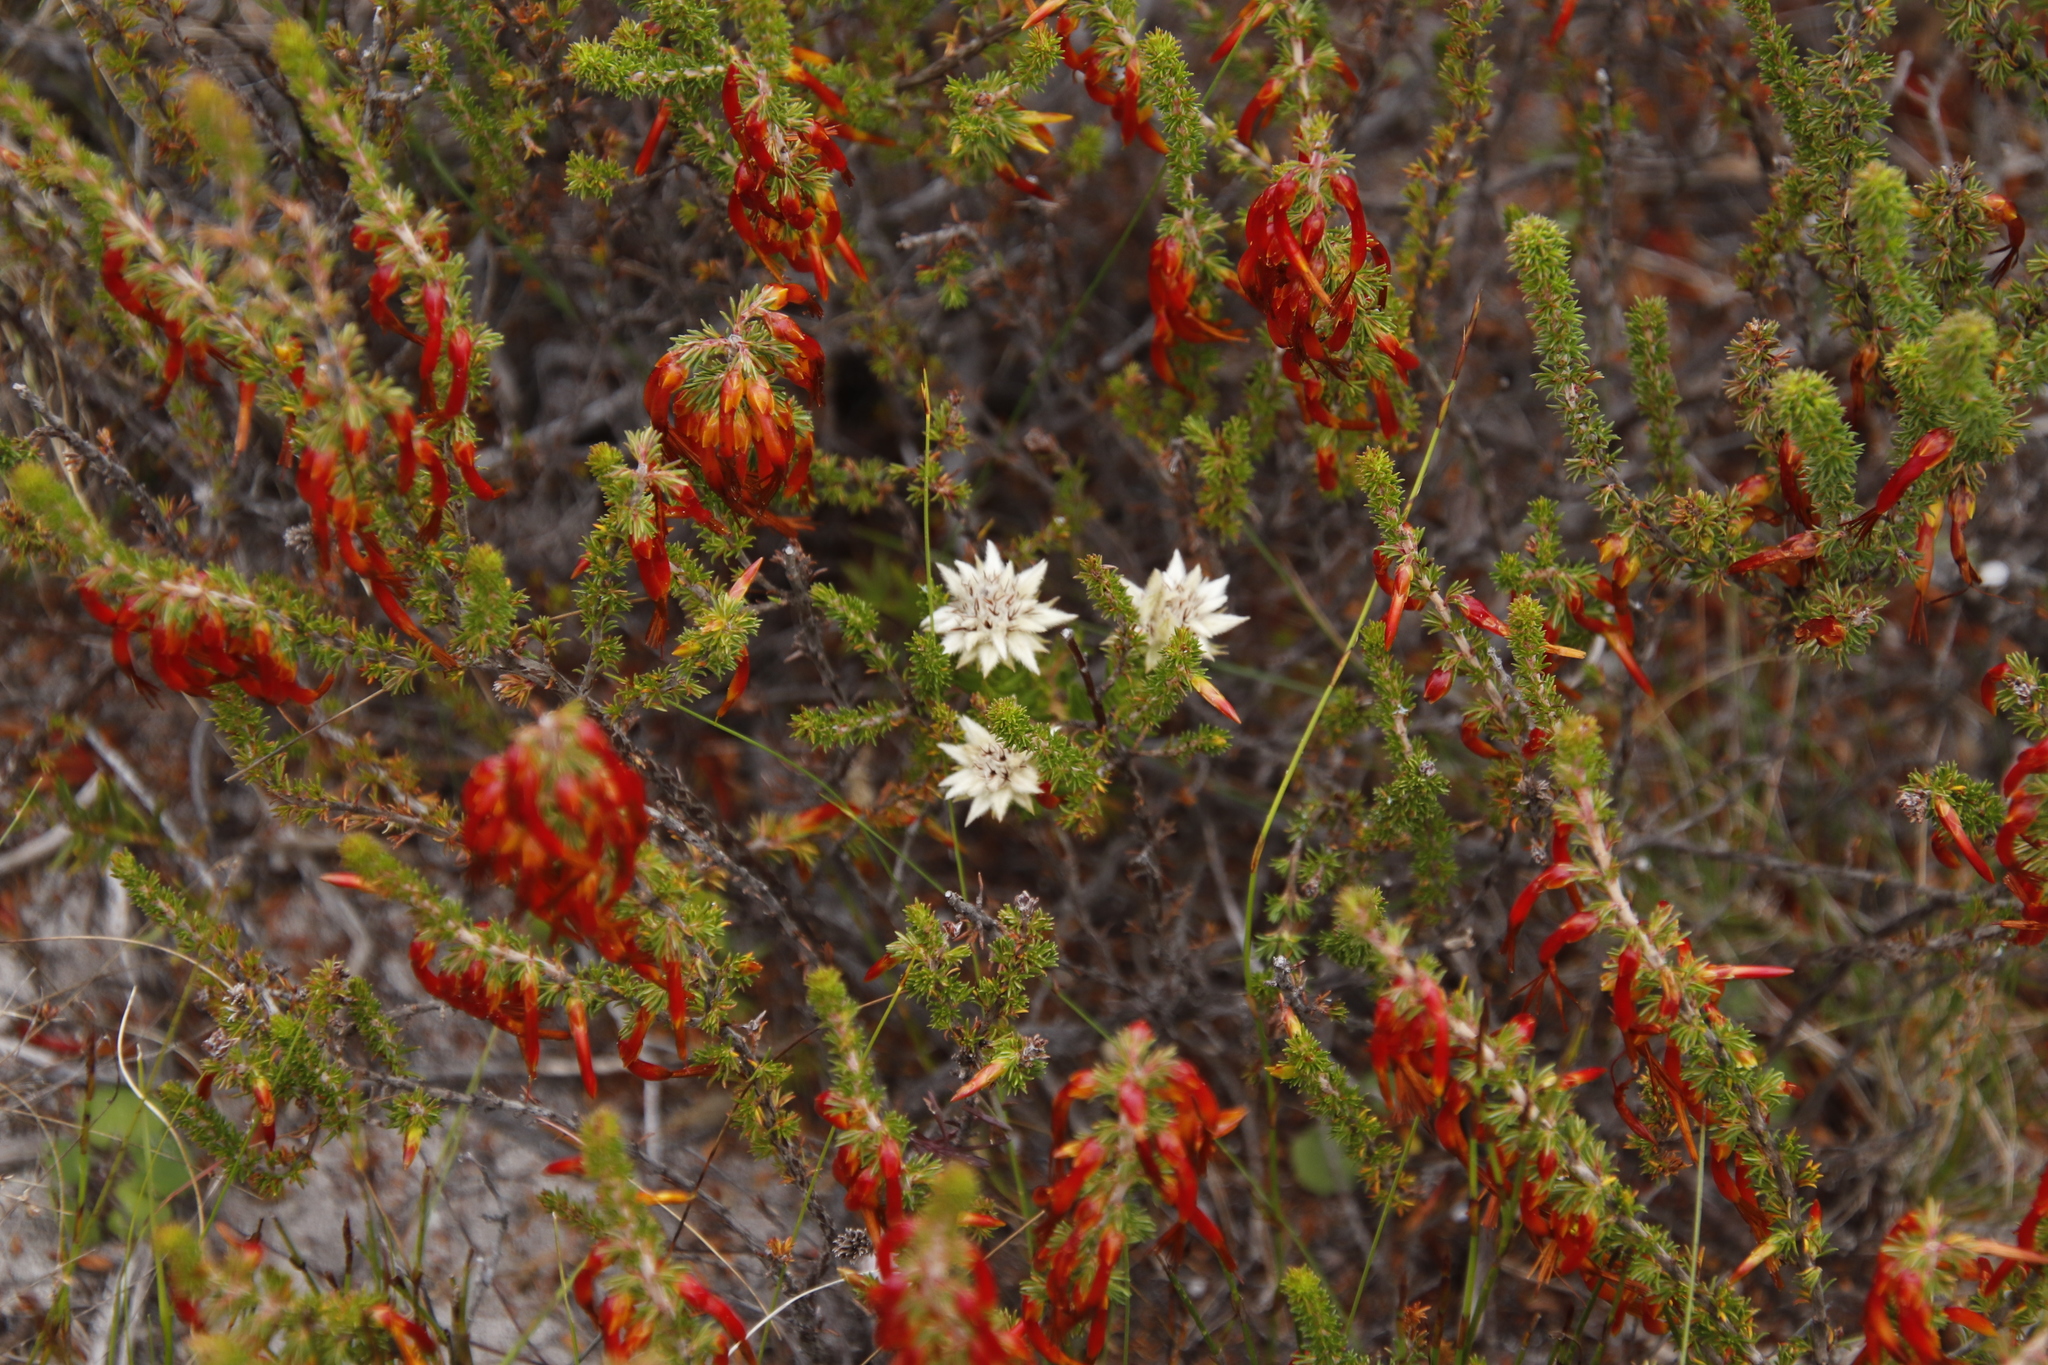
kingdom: Plantae
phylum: Tracheophyta
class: Magnoliopsida
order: Rosales
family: Rhamnaceae
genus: Phylica
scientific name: Phylica dodii
